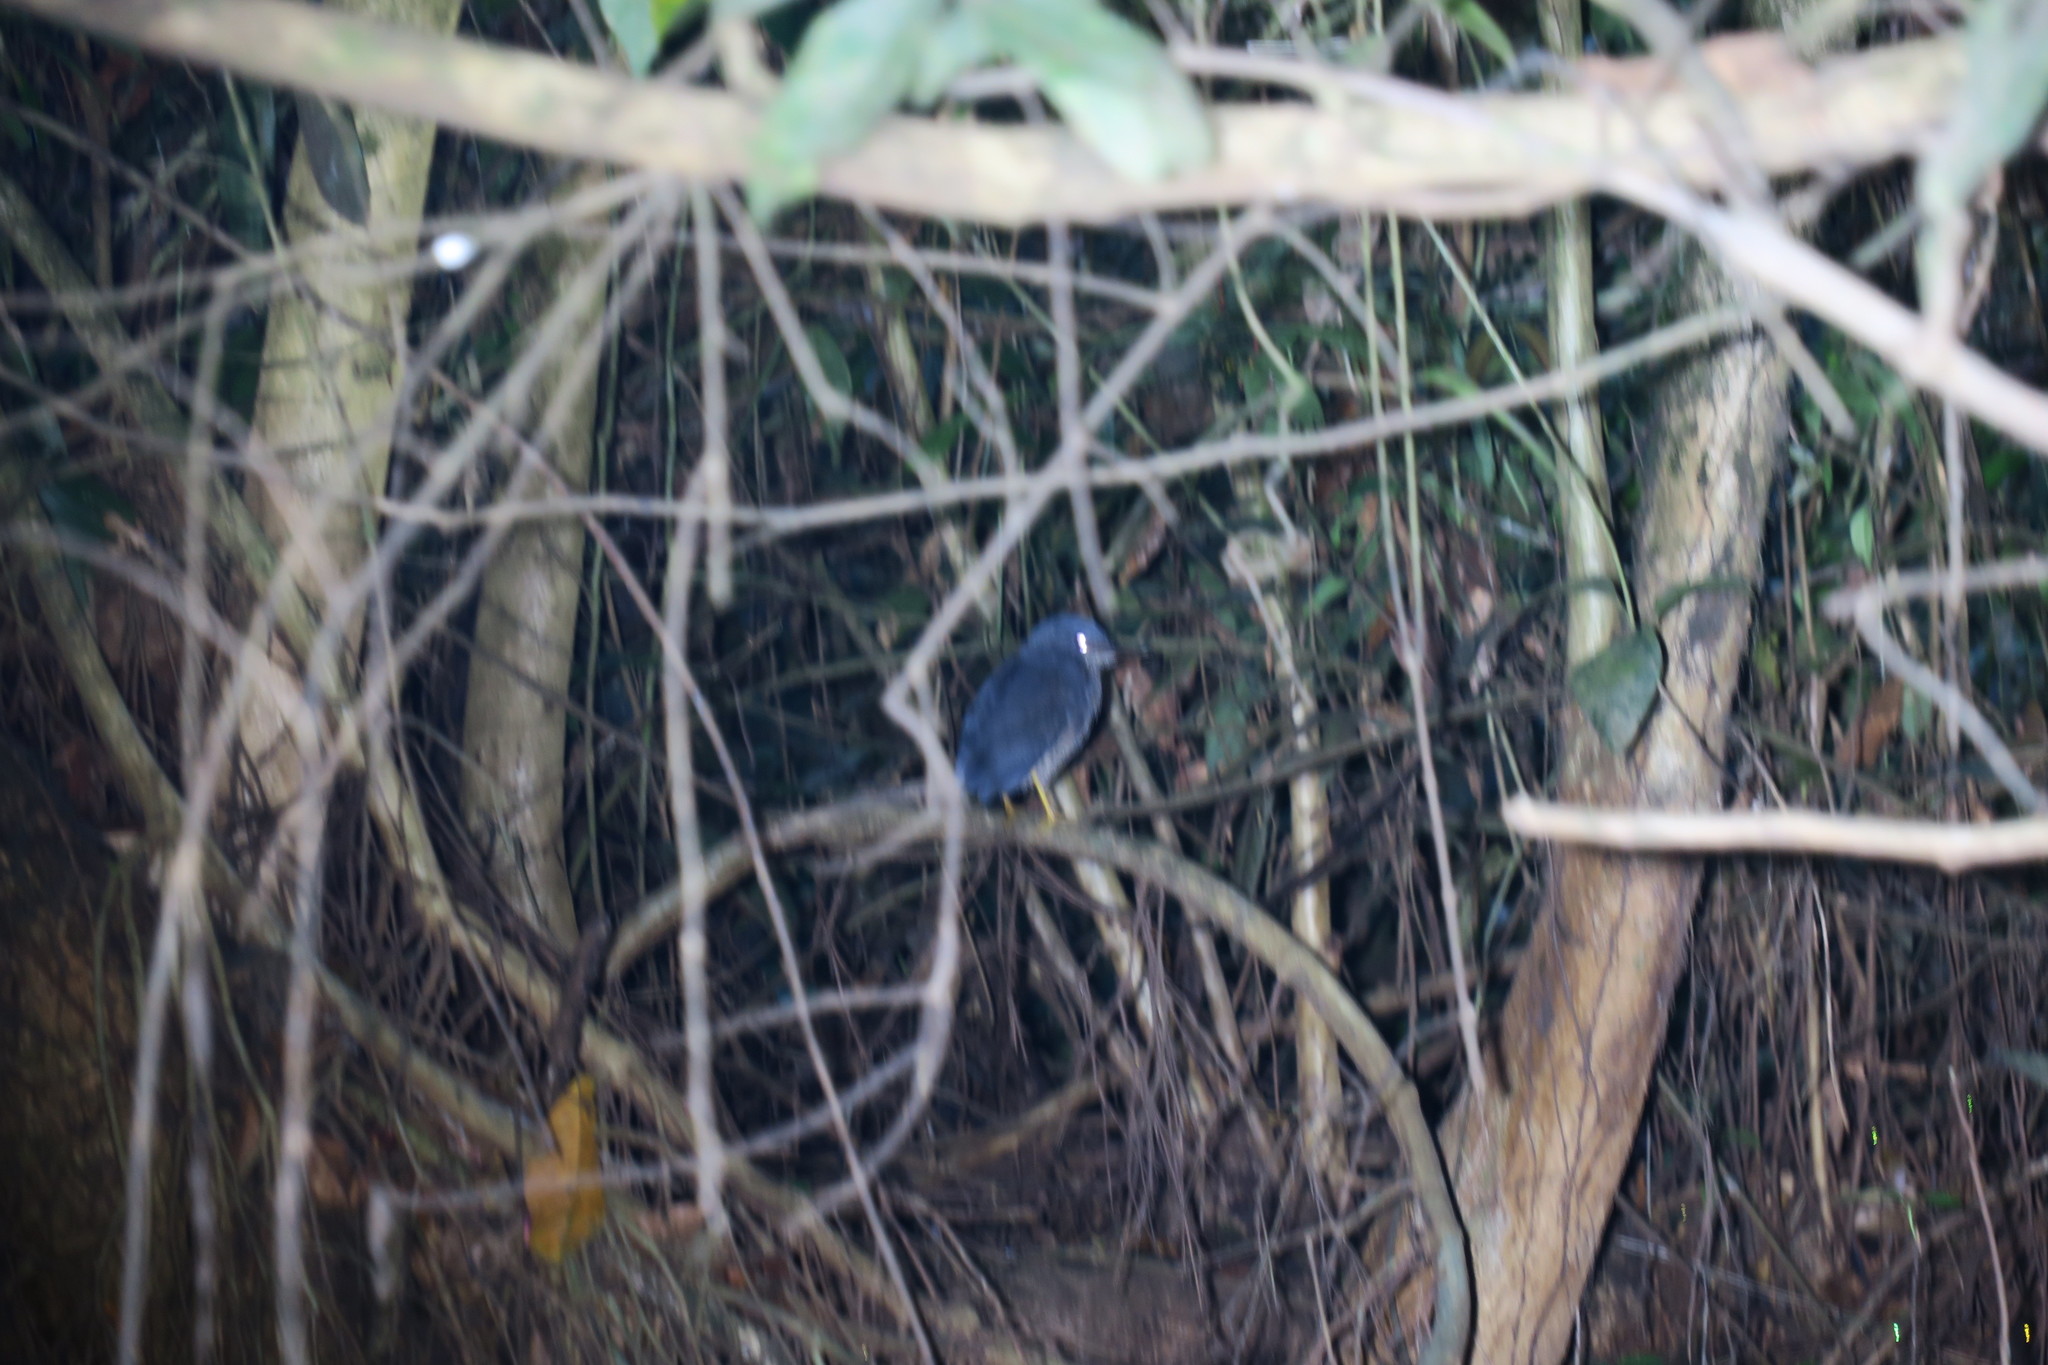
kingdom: Animalia
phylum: Chordata
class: Aves
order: Pelecaniformes
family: Ardeidae
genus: Zebrilus
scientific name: Zebrilus undulatus
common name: Zigzag heron
